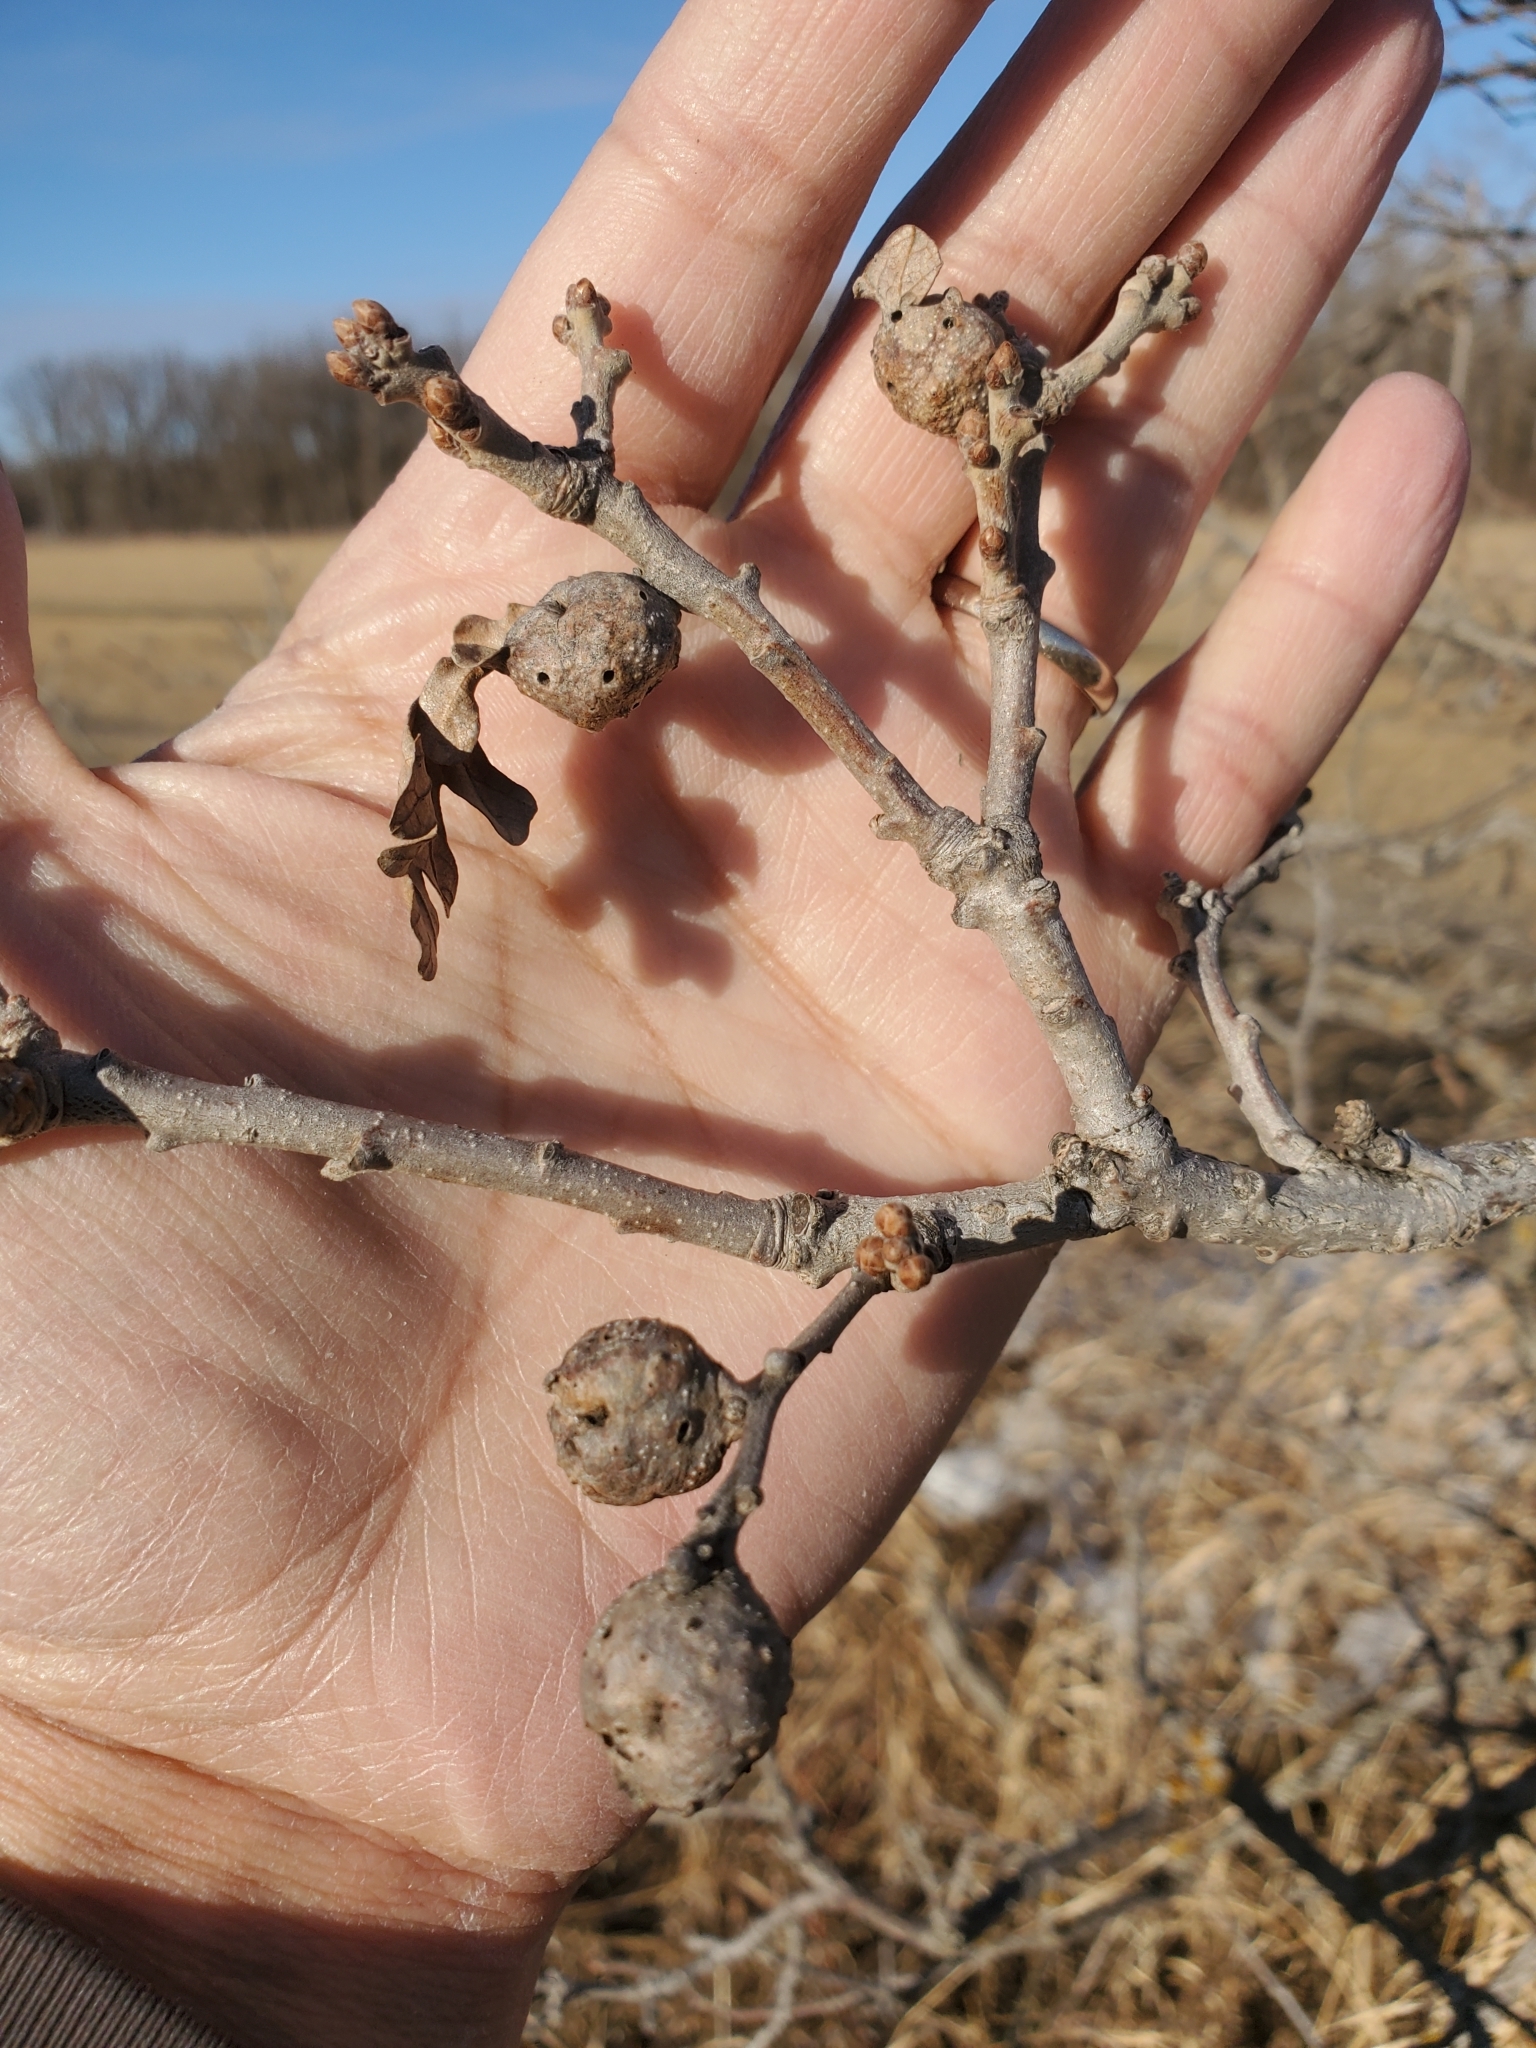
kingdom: Animalia
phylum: Arthropoda
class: Insecta
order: Hymenoptera
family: Cynipidae
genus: Andricus
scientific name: Andricus
